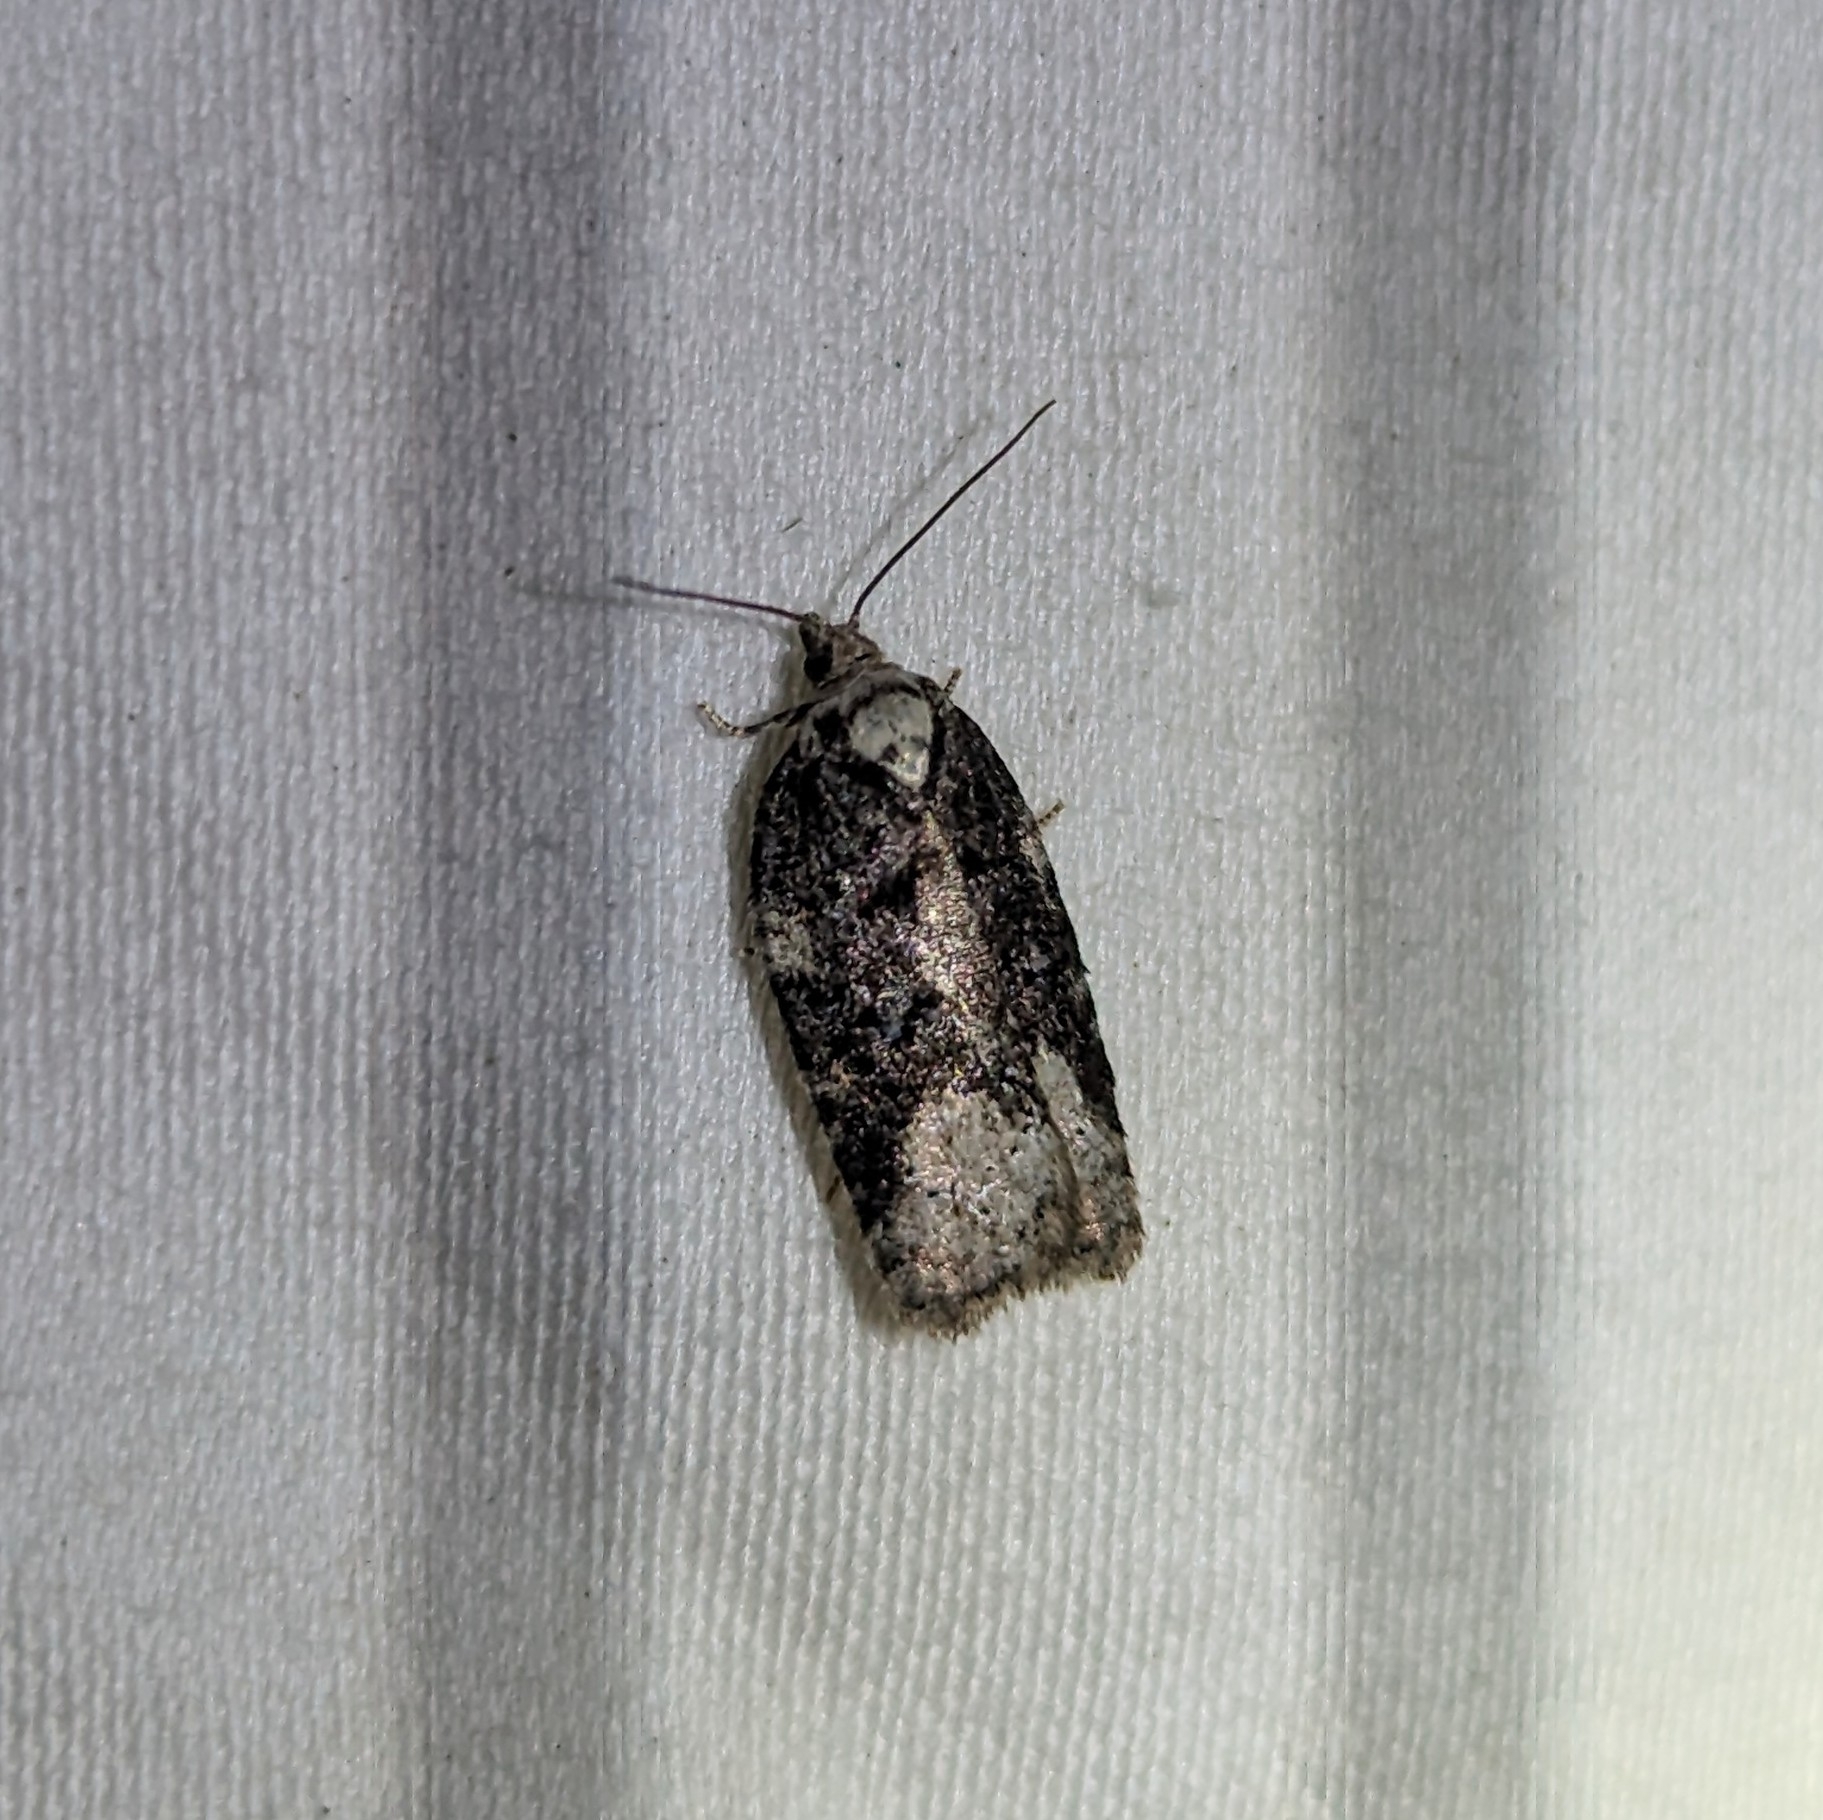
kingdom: Animalia
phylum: Arthropoda
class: Insecta
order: Lepidoptera
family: Tortricidae
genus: Acleris
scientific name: Acleris clarkei
